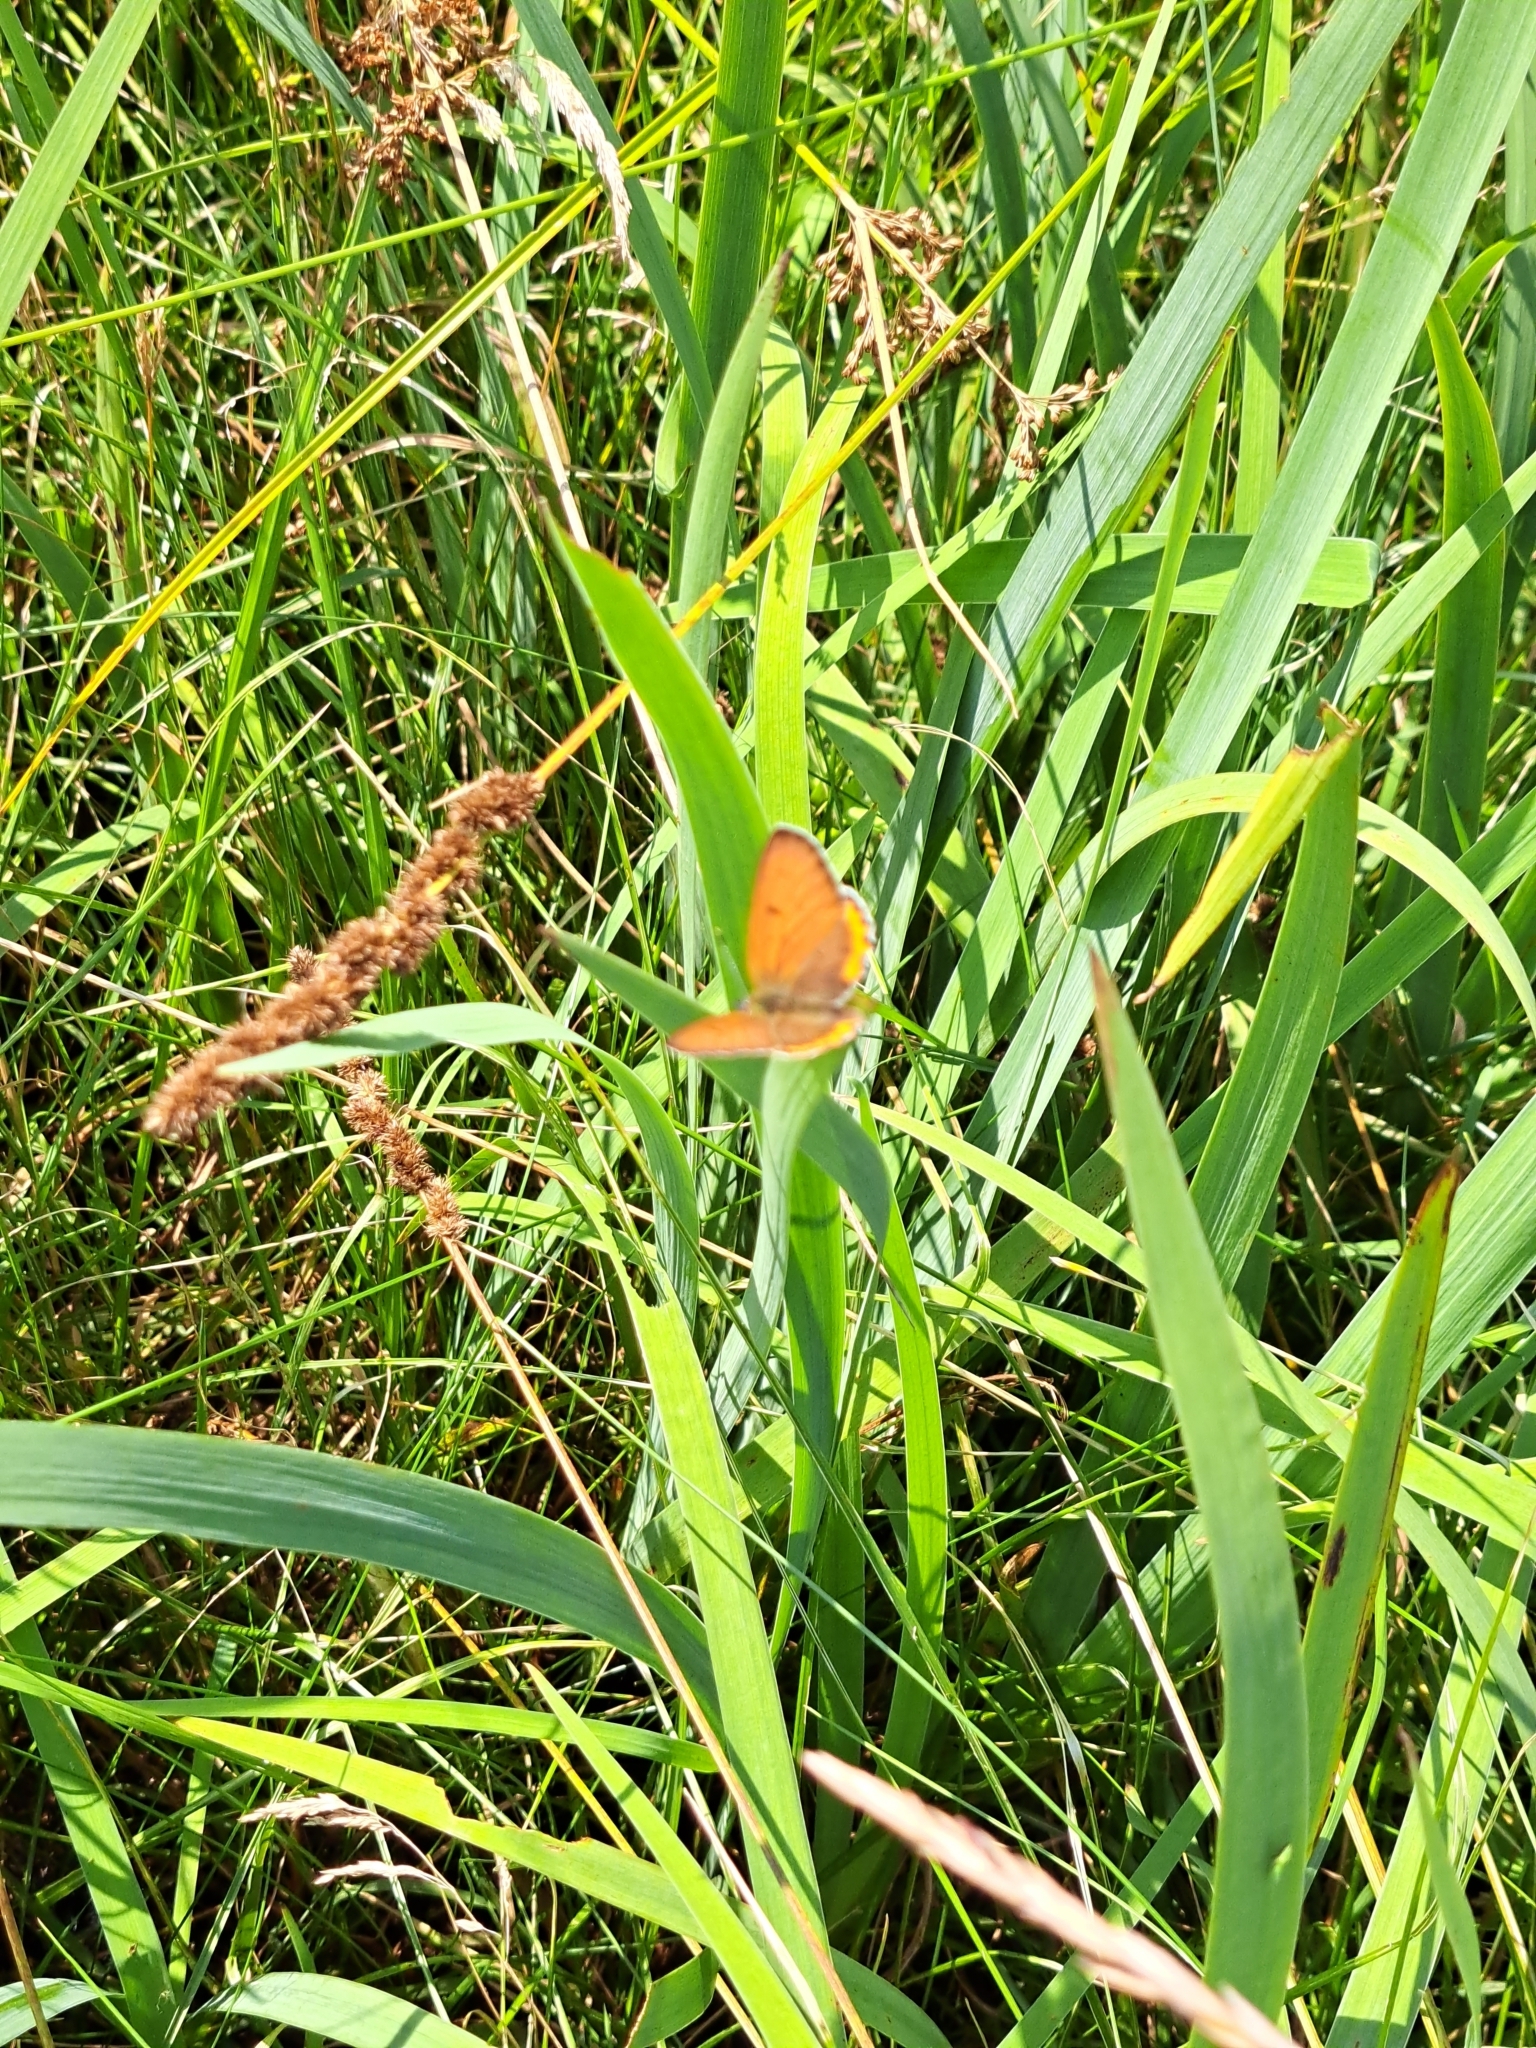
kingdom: Animalia
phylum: Arthropoda
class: Insecta
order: Lepidoptera
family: Lycaenidae
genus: Tharsalea
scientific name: Tharsalea hyllus
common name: Bronze copper
